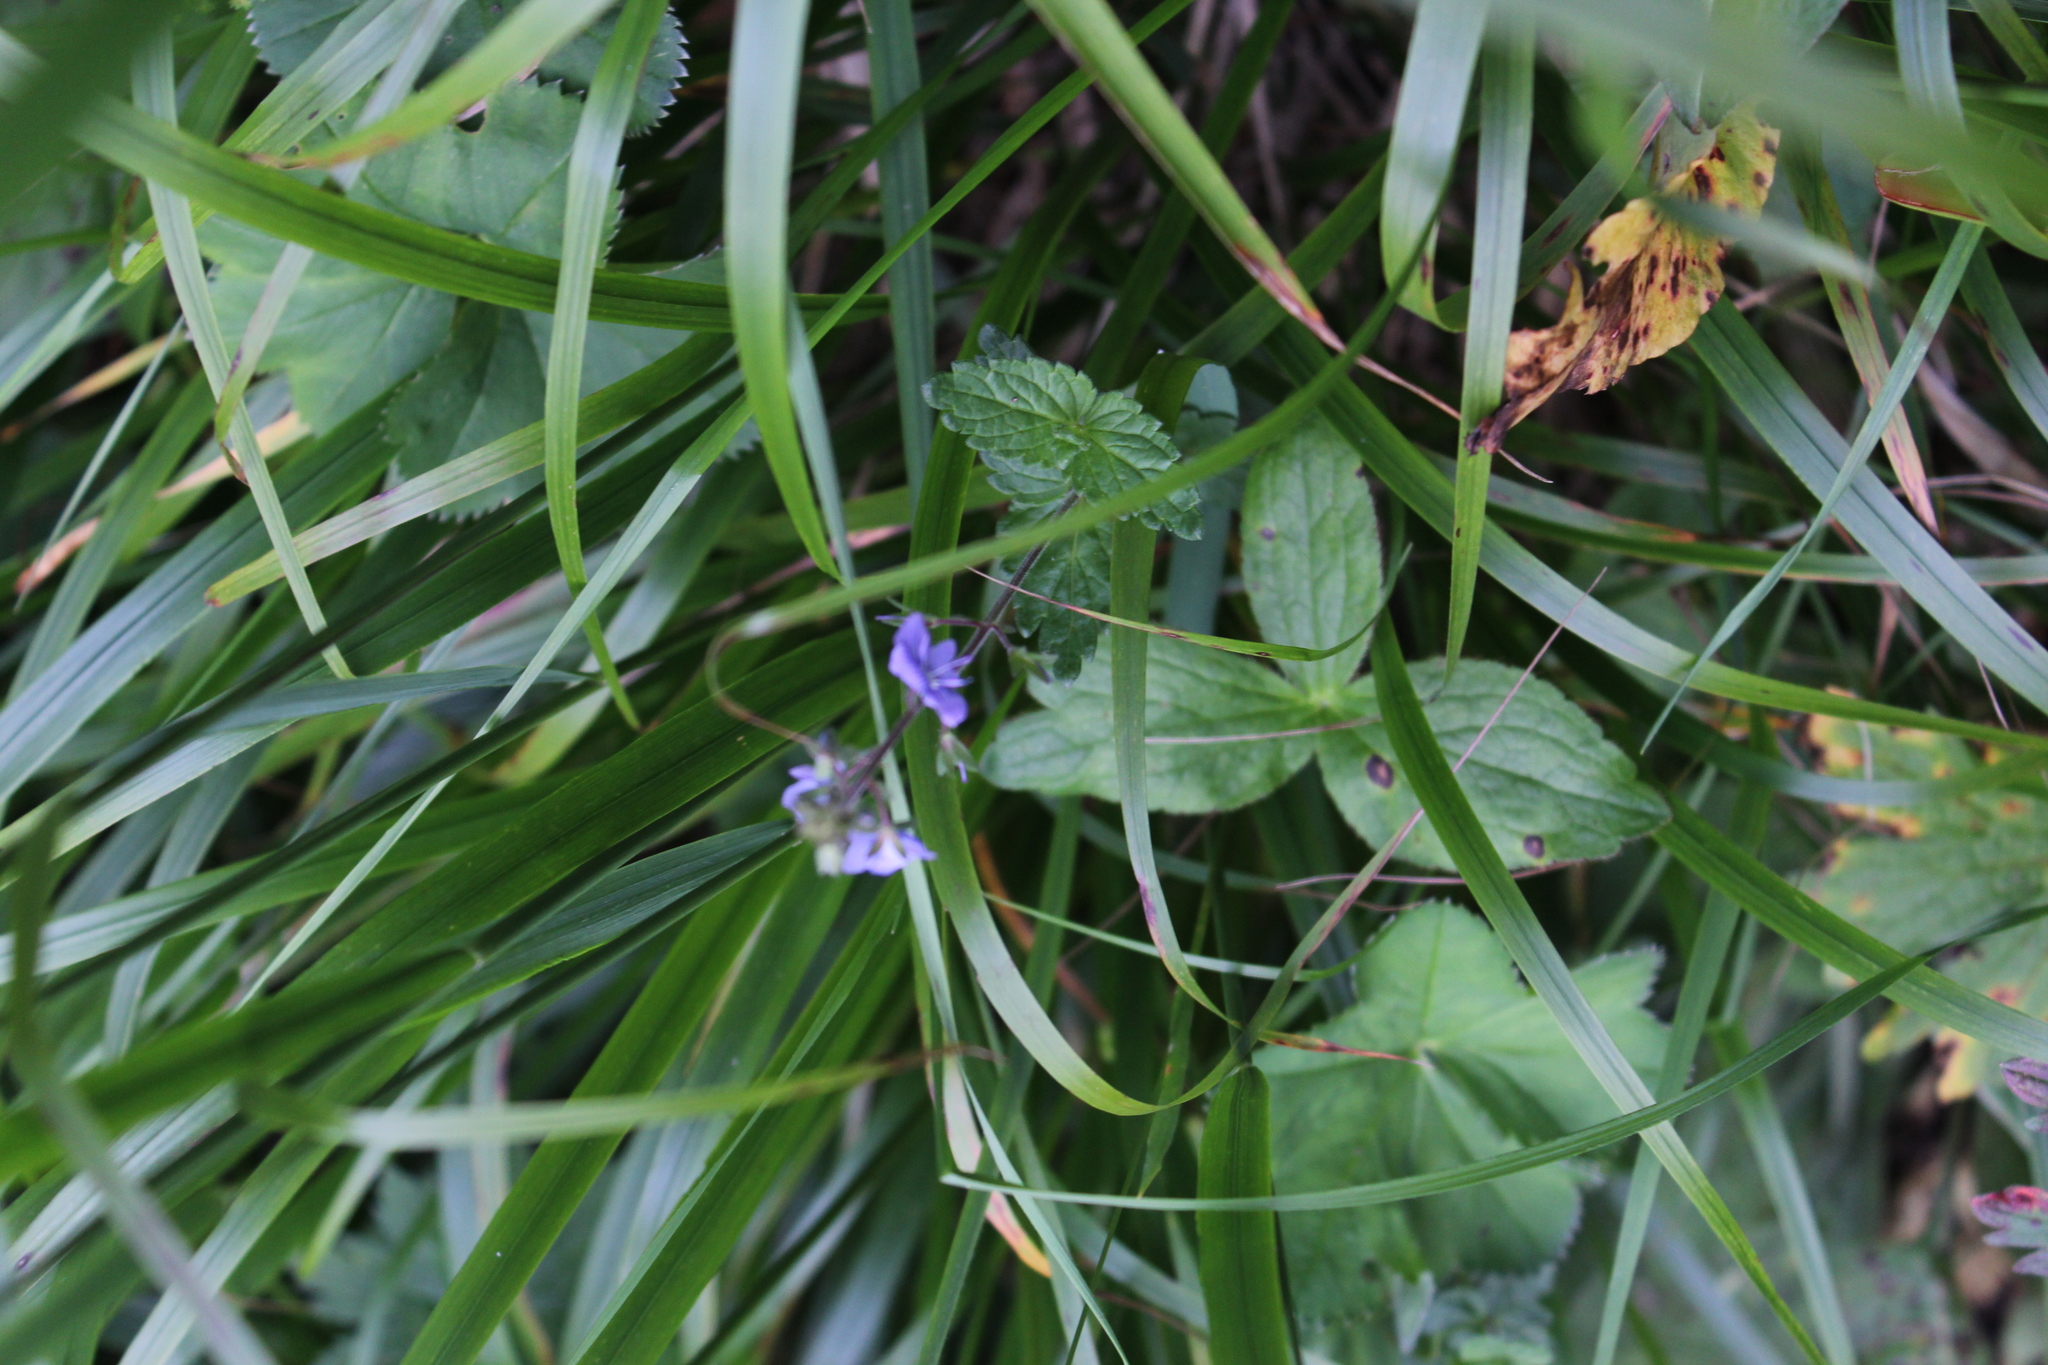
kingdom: Plantae
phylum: Tracheophyta
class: Magnoliopsida
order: Lamiales
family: Plantaginaceae
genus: Veronica
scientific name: Veronica chamaedrys
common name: Germander speedwell
